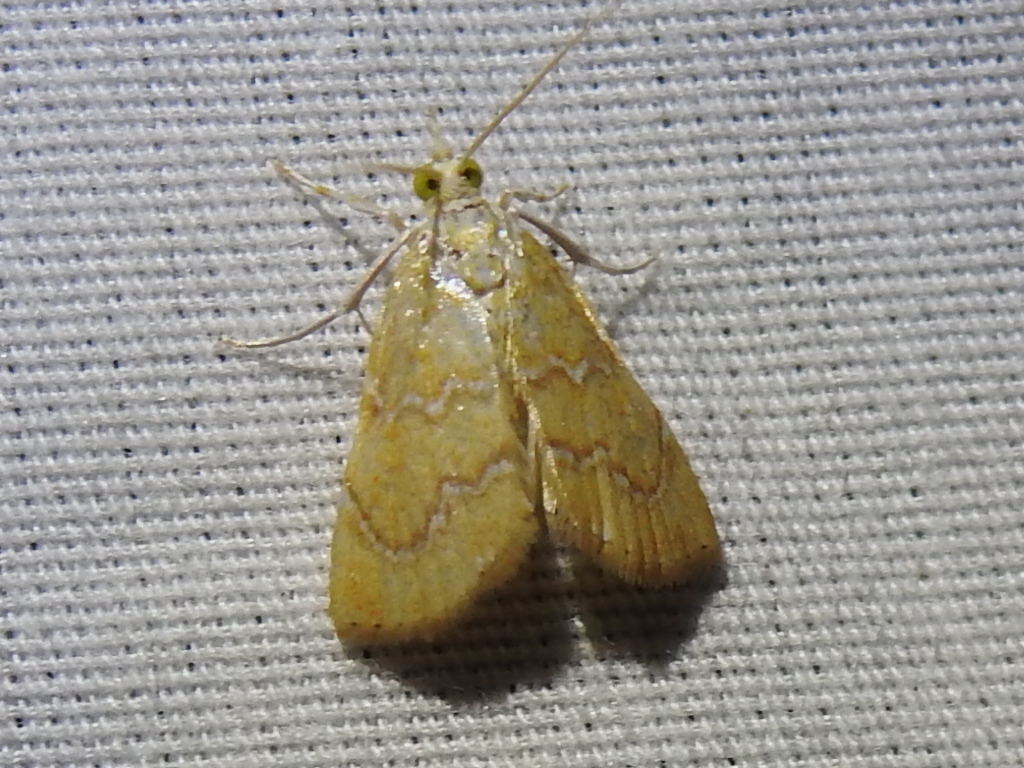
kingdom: Animalia
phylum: Arthropoda
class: Insecta
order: Lepidoptera
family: Crambidae
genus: Glaphyria
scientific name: Glaphyria sesquistrialis
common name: White-roped glaphyria
